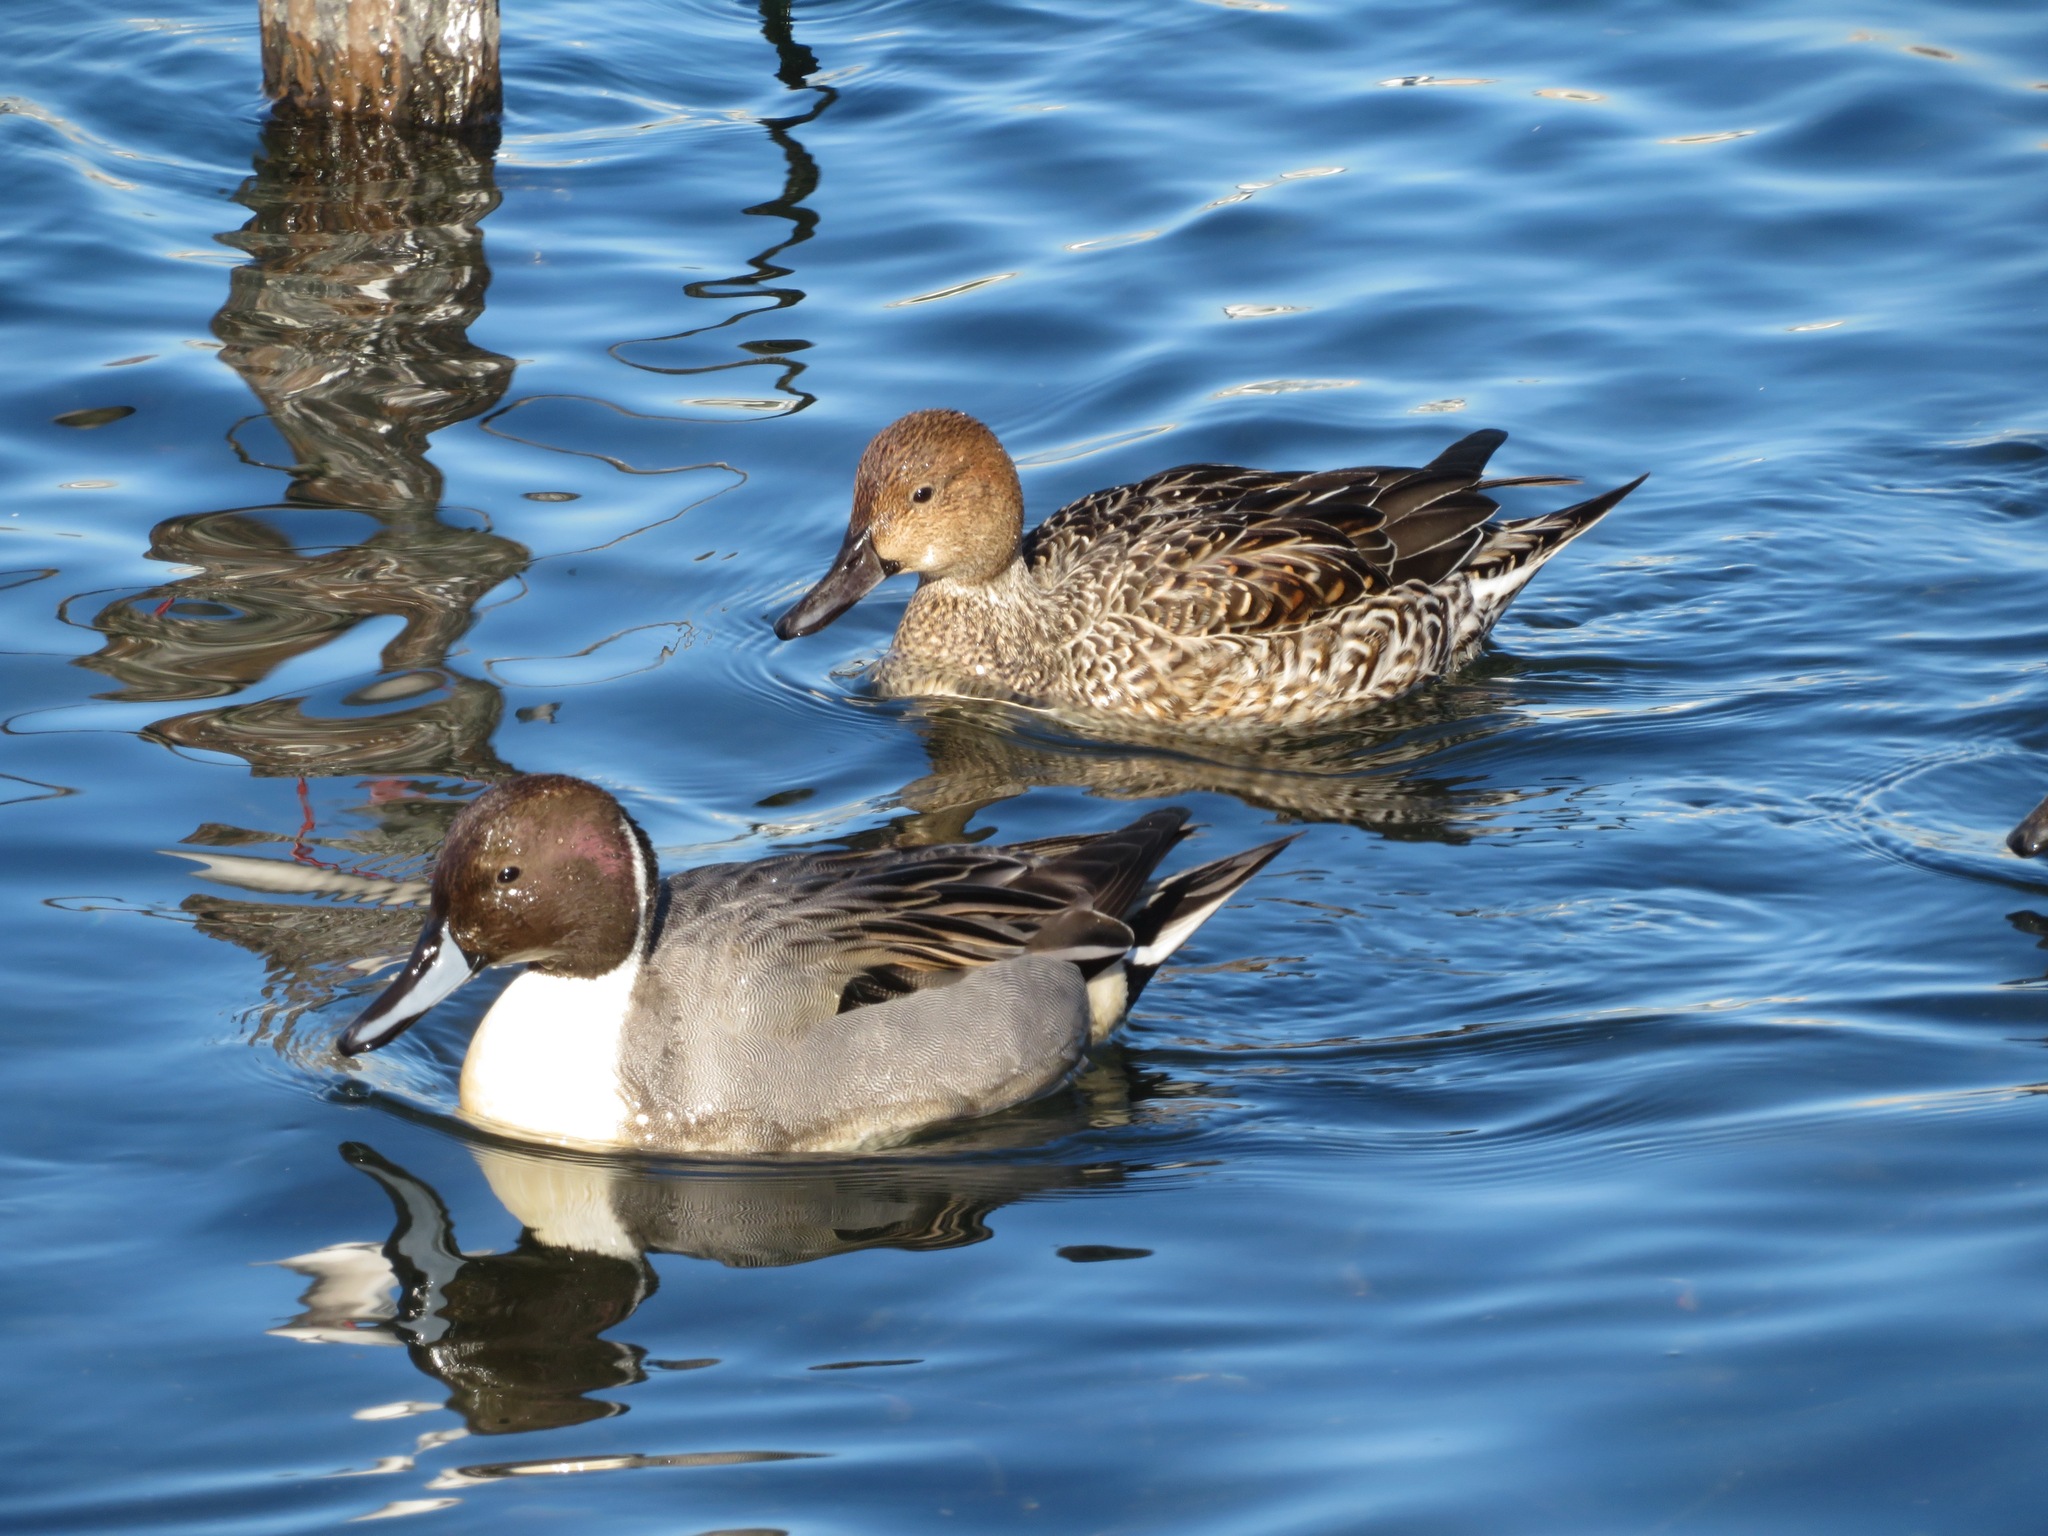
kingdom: Animalia
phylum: Chordata
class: Aves
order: Anseriformes
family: Anatidae
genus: Anas
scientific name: Anas acuta
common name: Northern pintail
